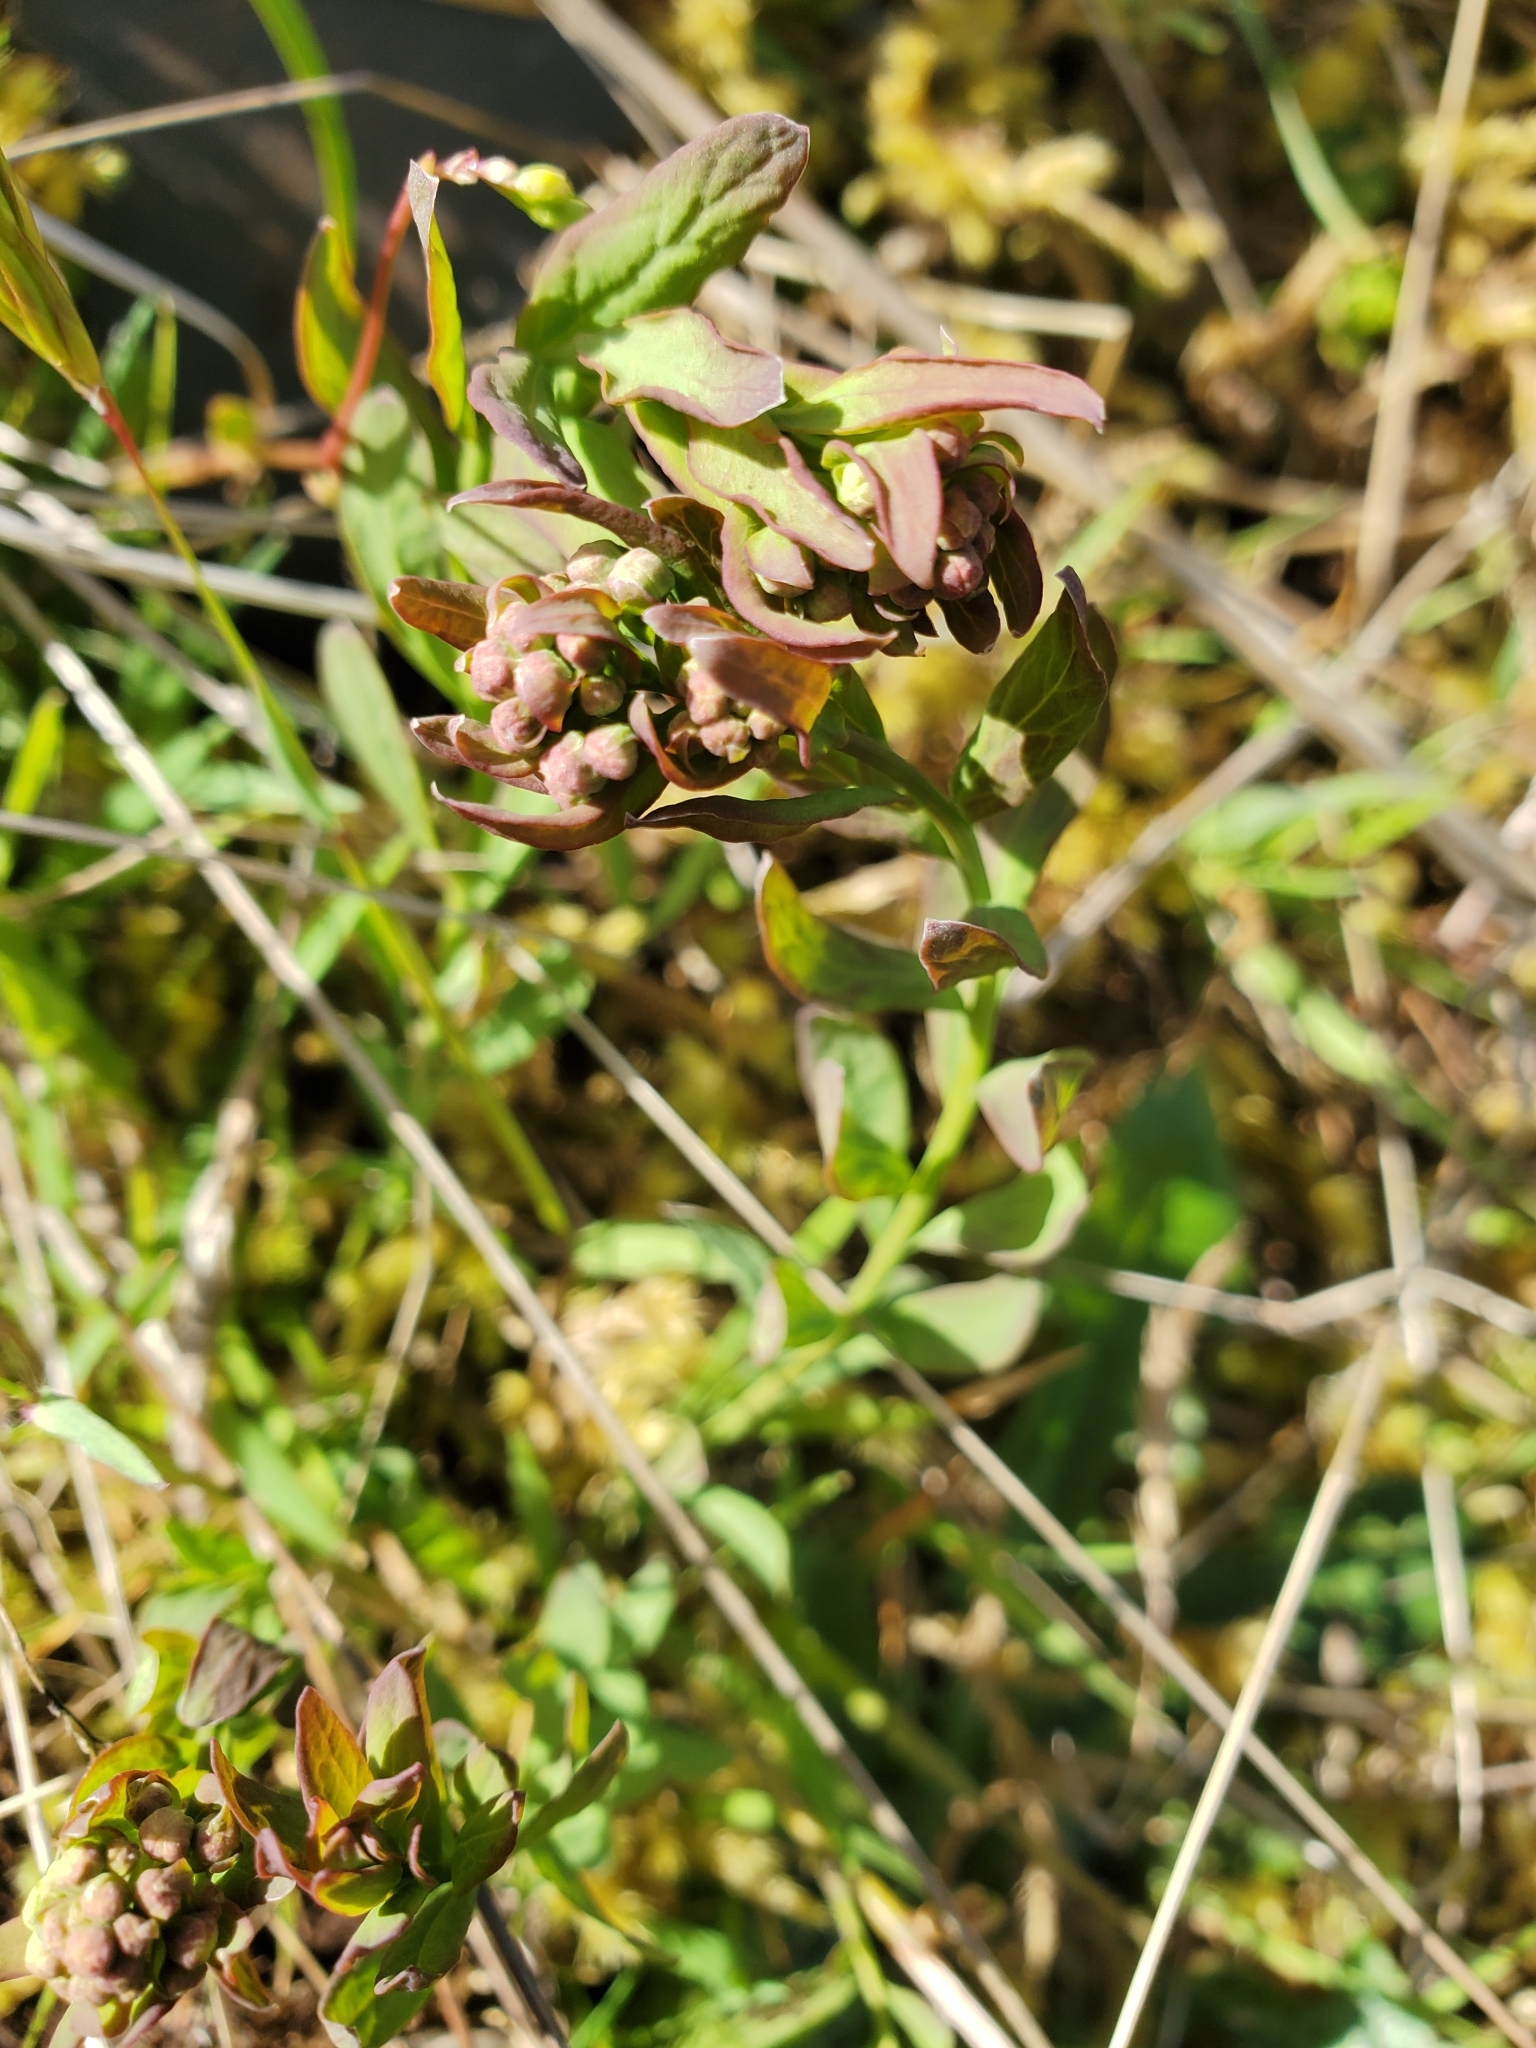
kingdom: Plantae
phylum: Tracheophyta
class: Magnoliopsida
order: Santalales
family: Comandraceae
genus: Comandra
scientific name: Comandra umbellata
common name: Bastard toadflax
